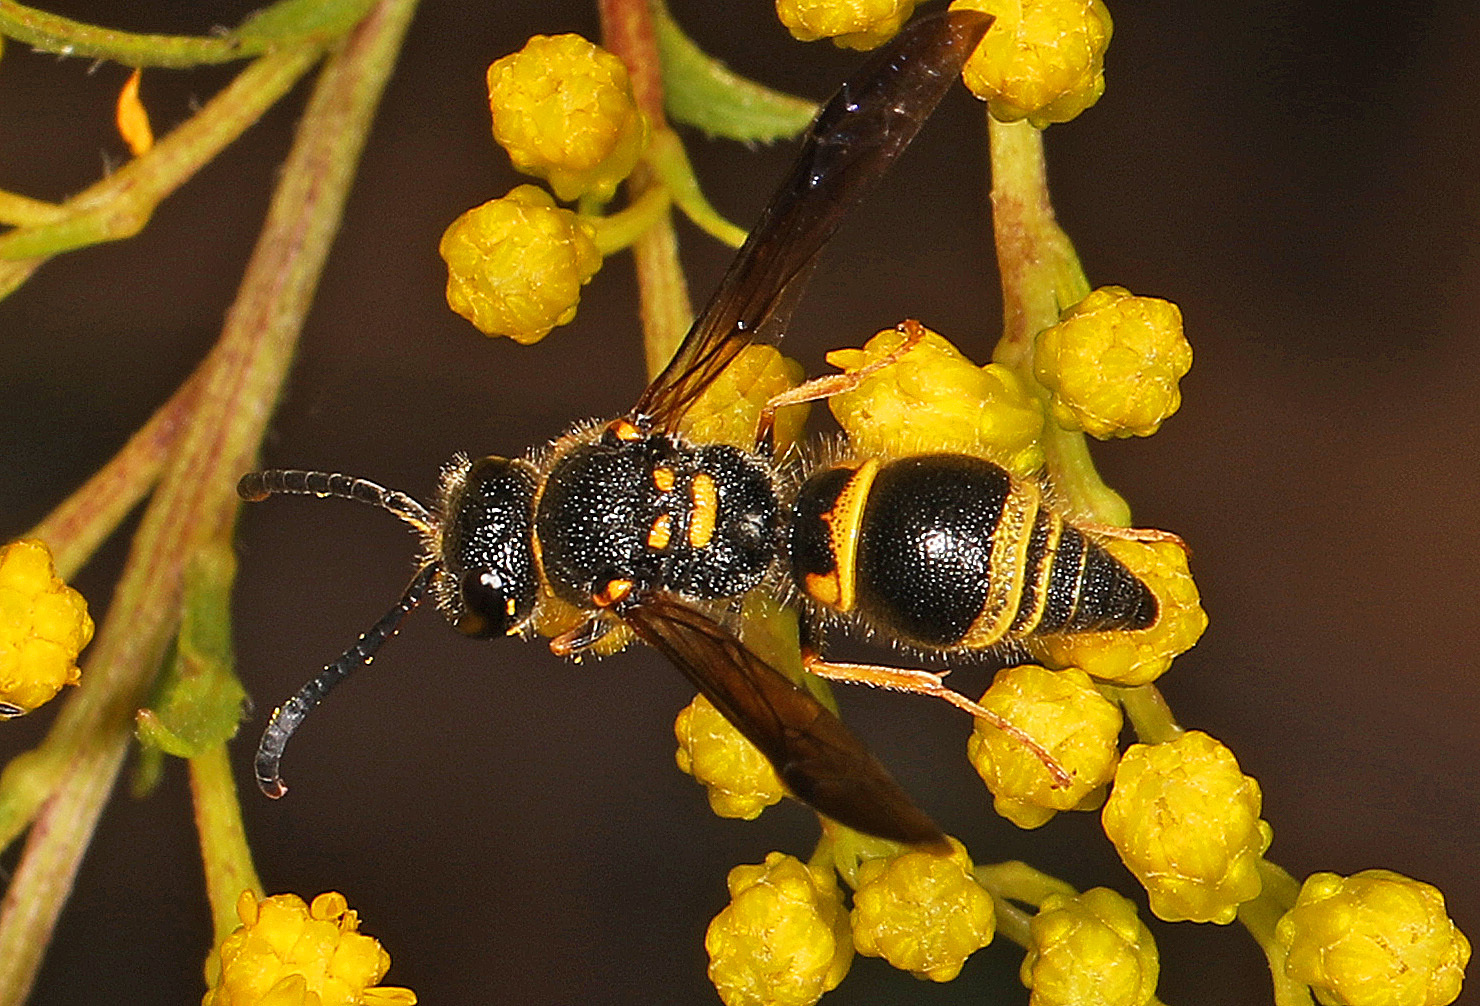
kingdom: Animalia
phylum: Arthropoda
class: Insecta
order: Hymenoptera
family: Vespidae
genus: Ancistrocerus
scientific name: Ancistrocerus campestris
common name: Smiling mason wasp
